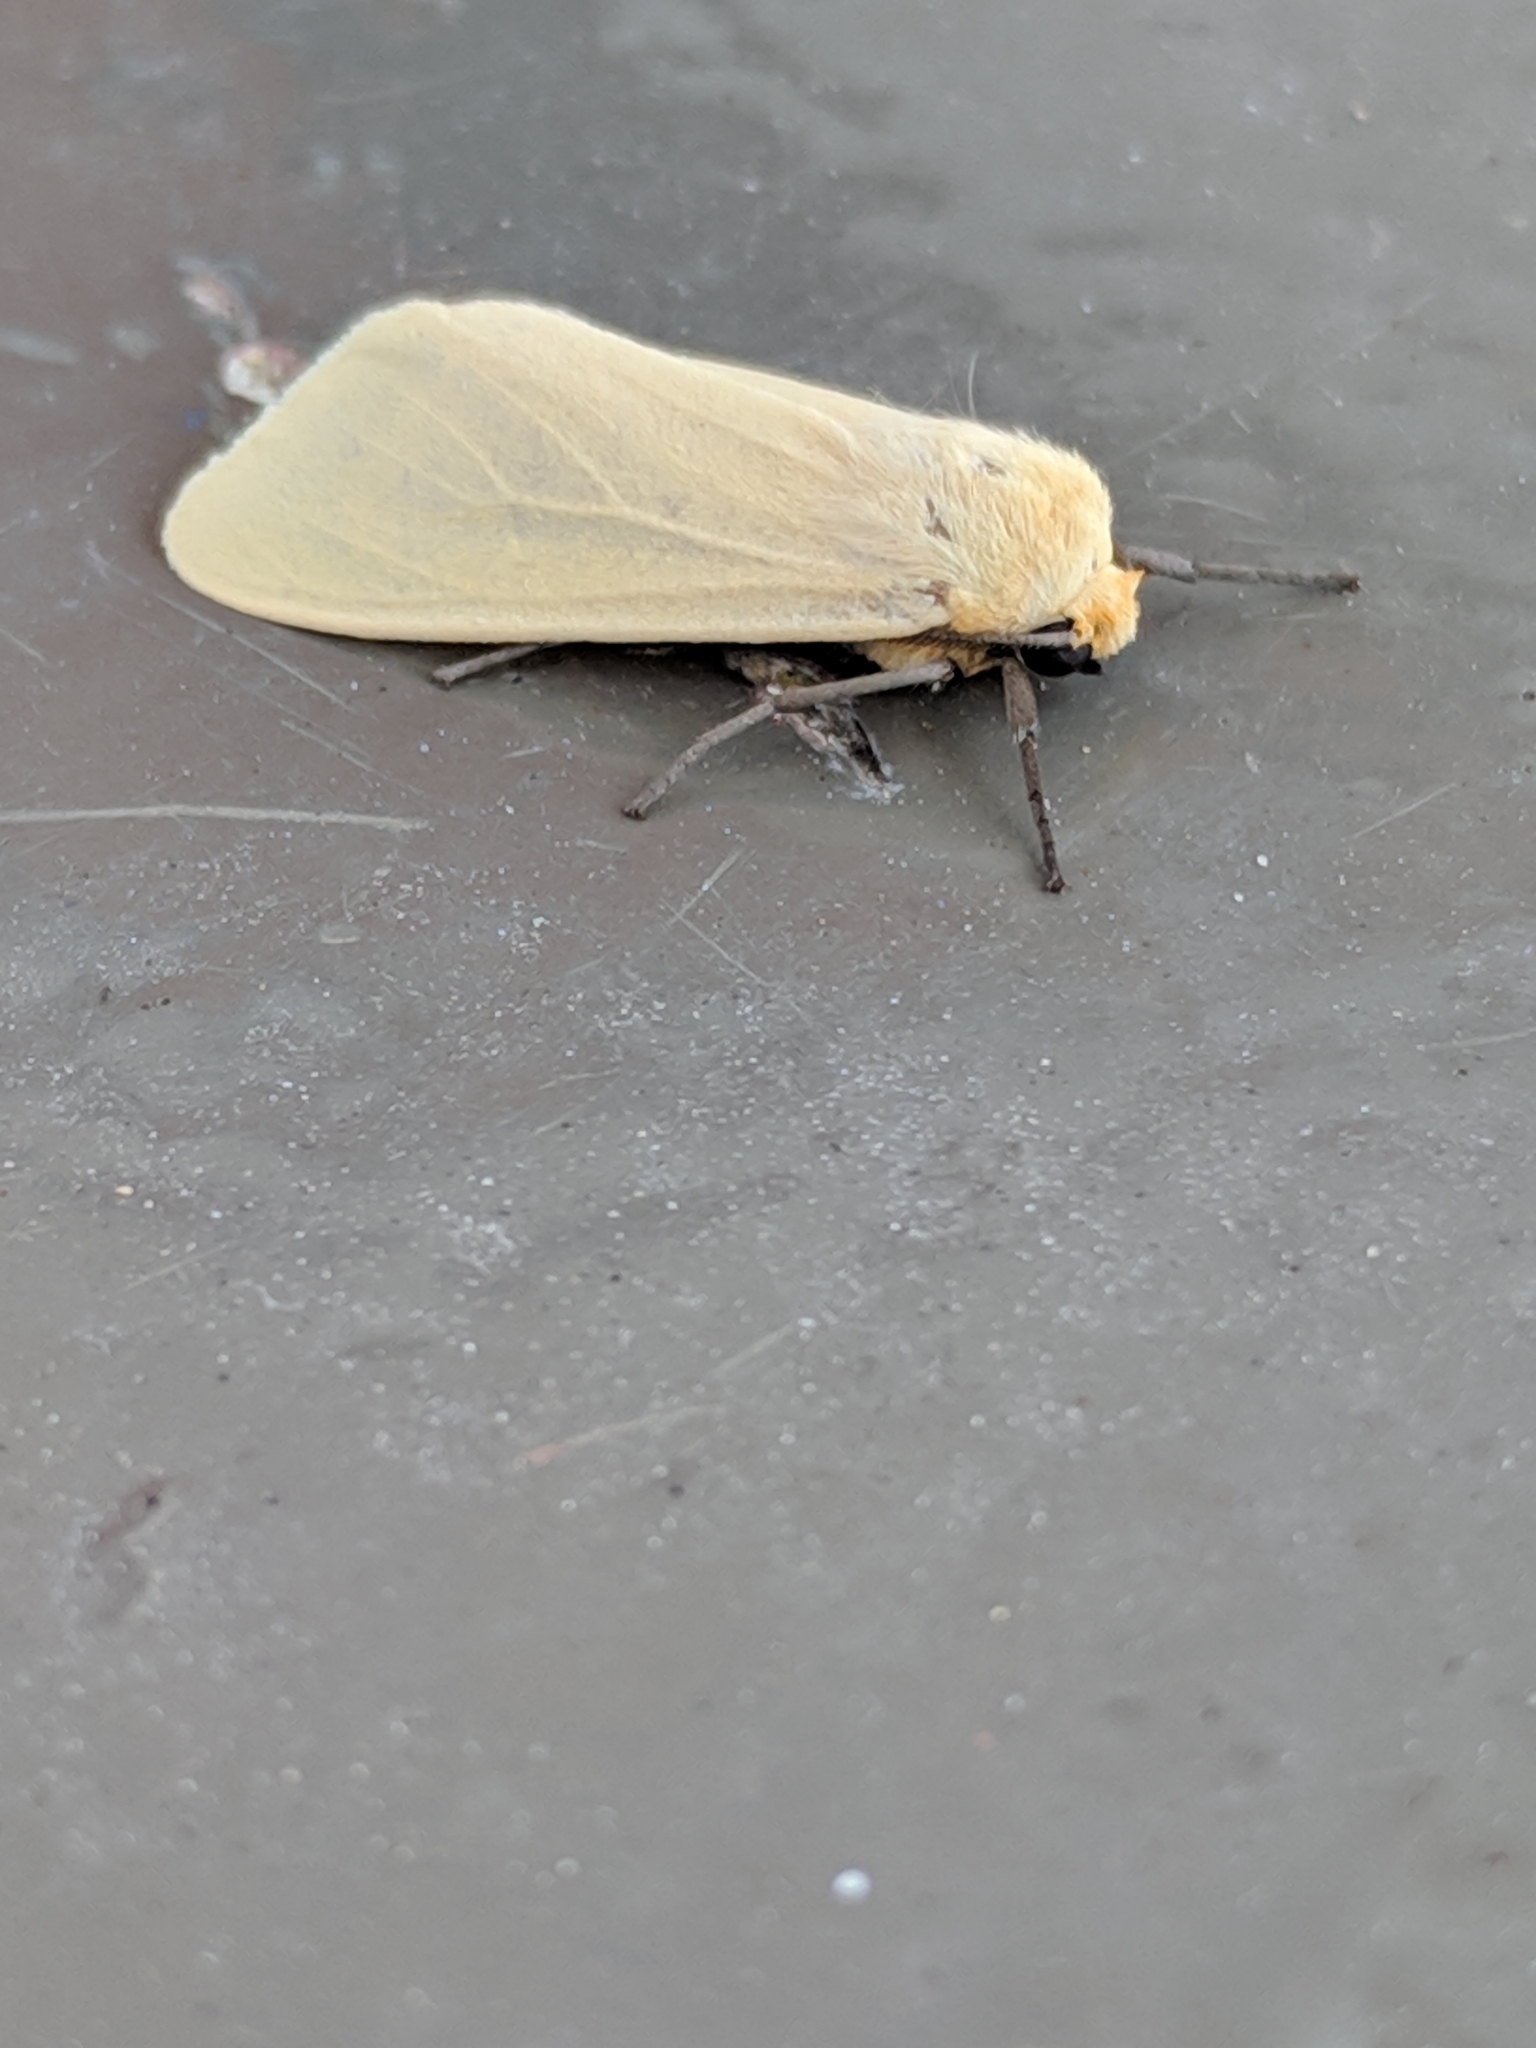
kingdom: Animalia
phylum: Arthropoda
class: Insecta
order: Lepidoptera
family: Erebidae
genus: Pareuchaetes
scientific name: Pareuchaetes insulata
